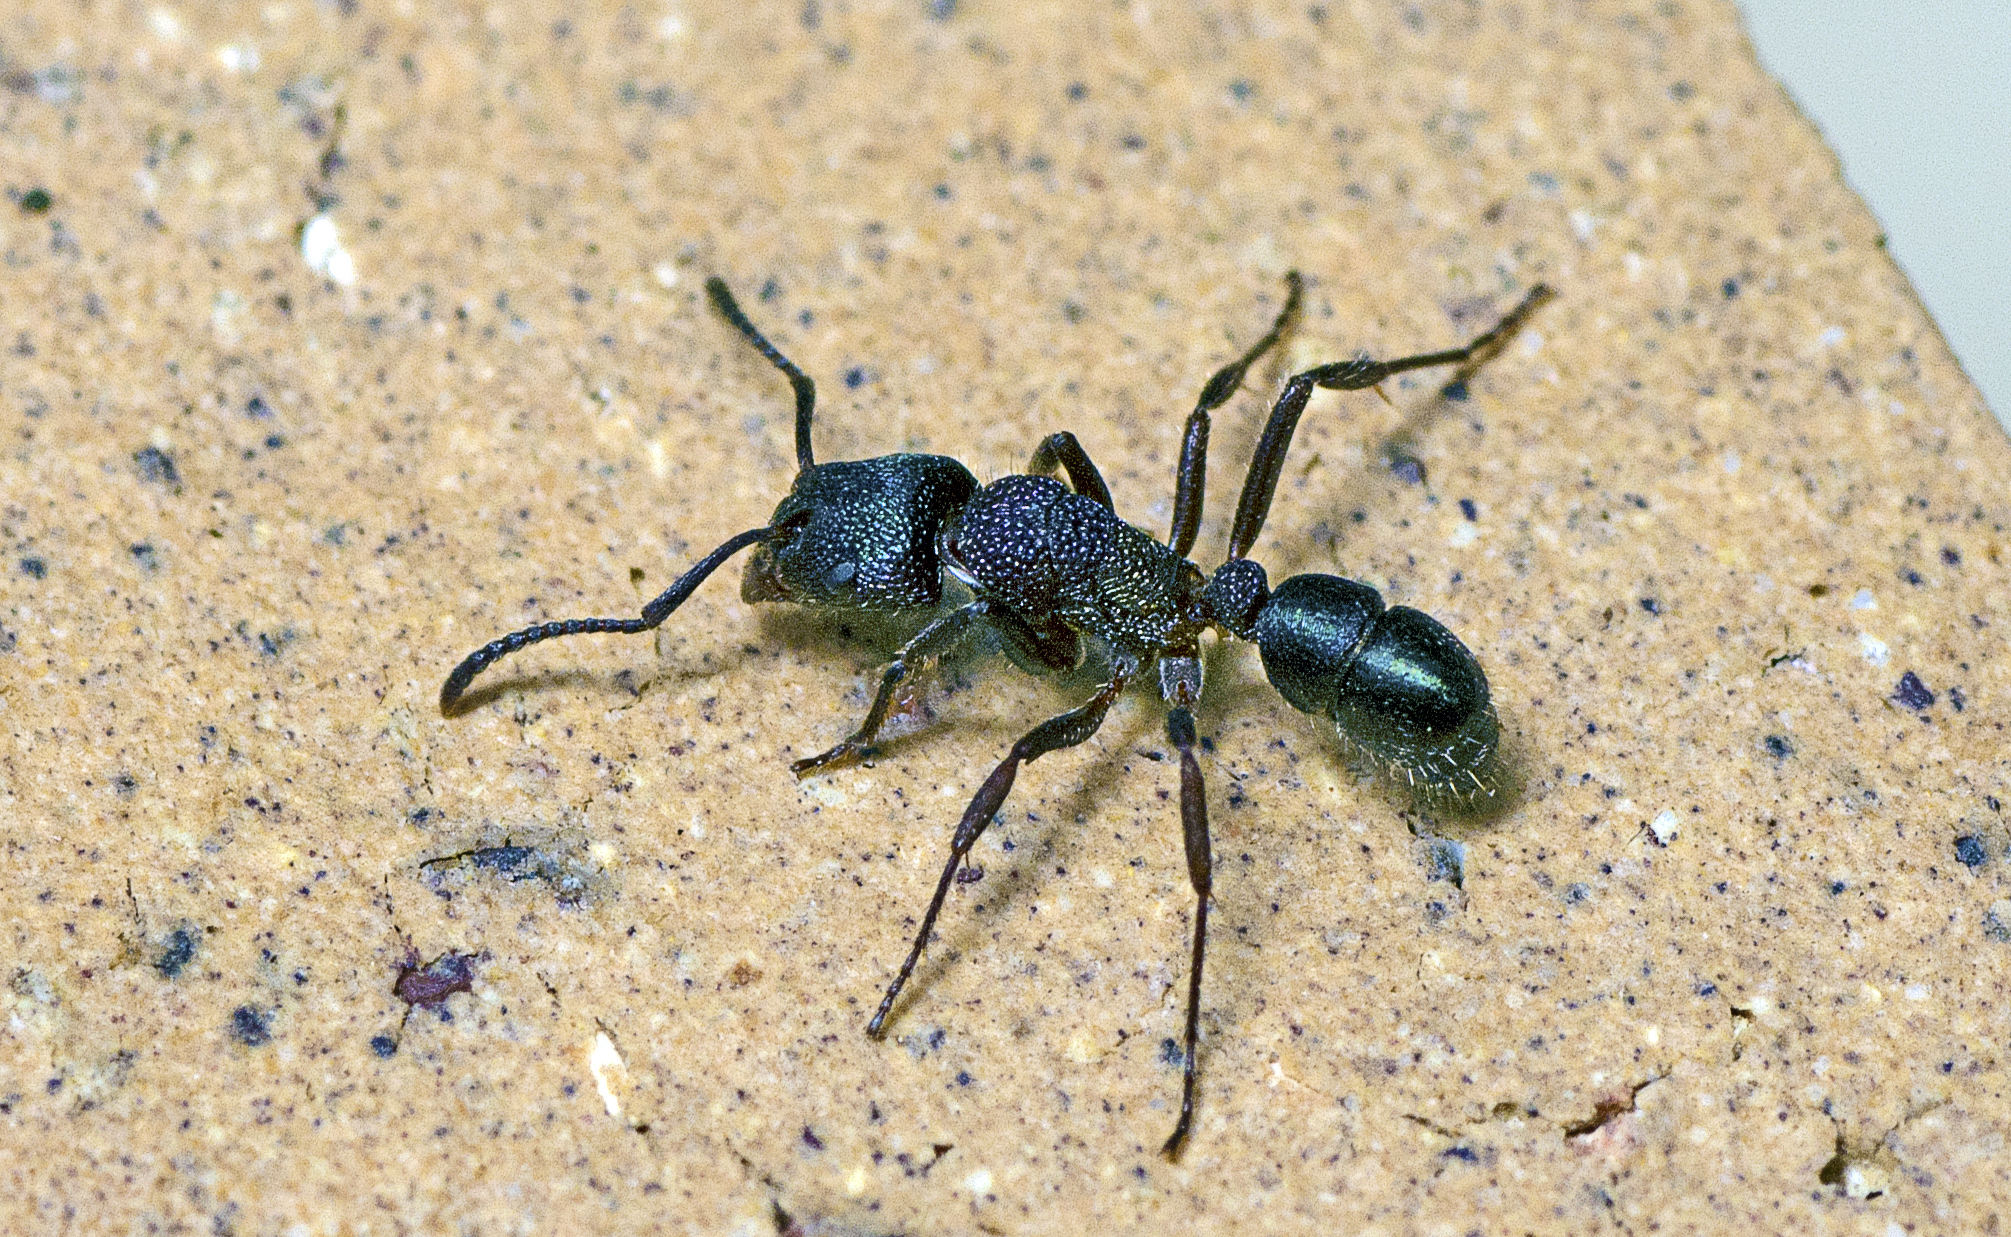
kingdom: Animalia
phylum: Arthropoda
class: Insecta
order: Hymenoptera
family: Formicidae
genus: Rhytidoponera
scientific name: Rhytidoponera metallica
